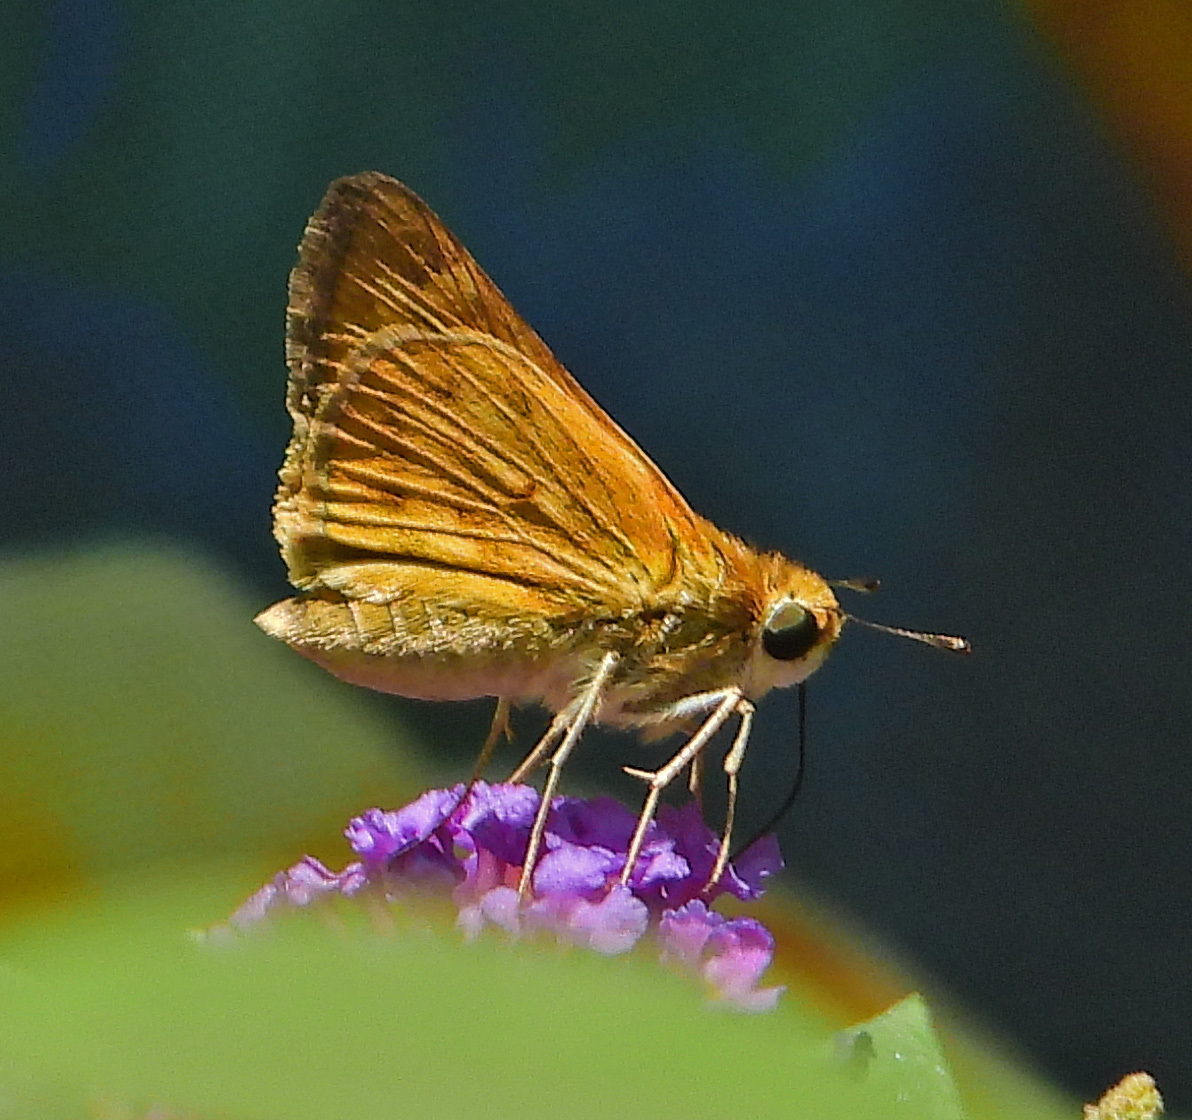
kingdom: Animalia
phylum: Arthropoda
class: Insecta
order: Lepidoptera
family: Hesperiidae
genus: Hylephila
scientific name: Hylephila phyleus
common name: Fiery skipper
